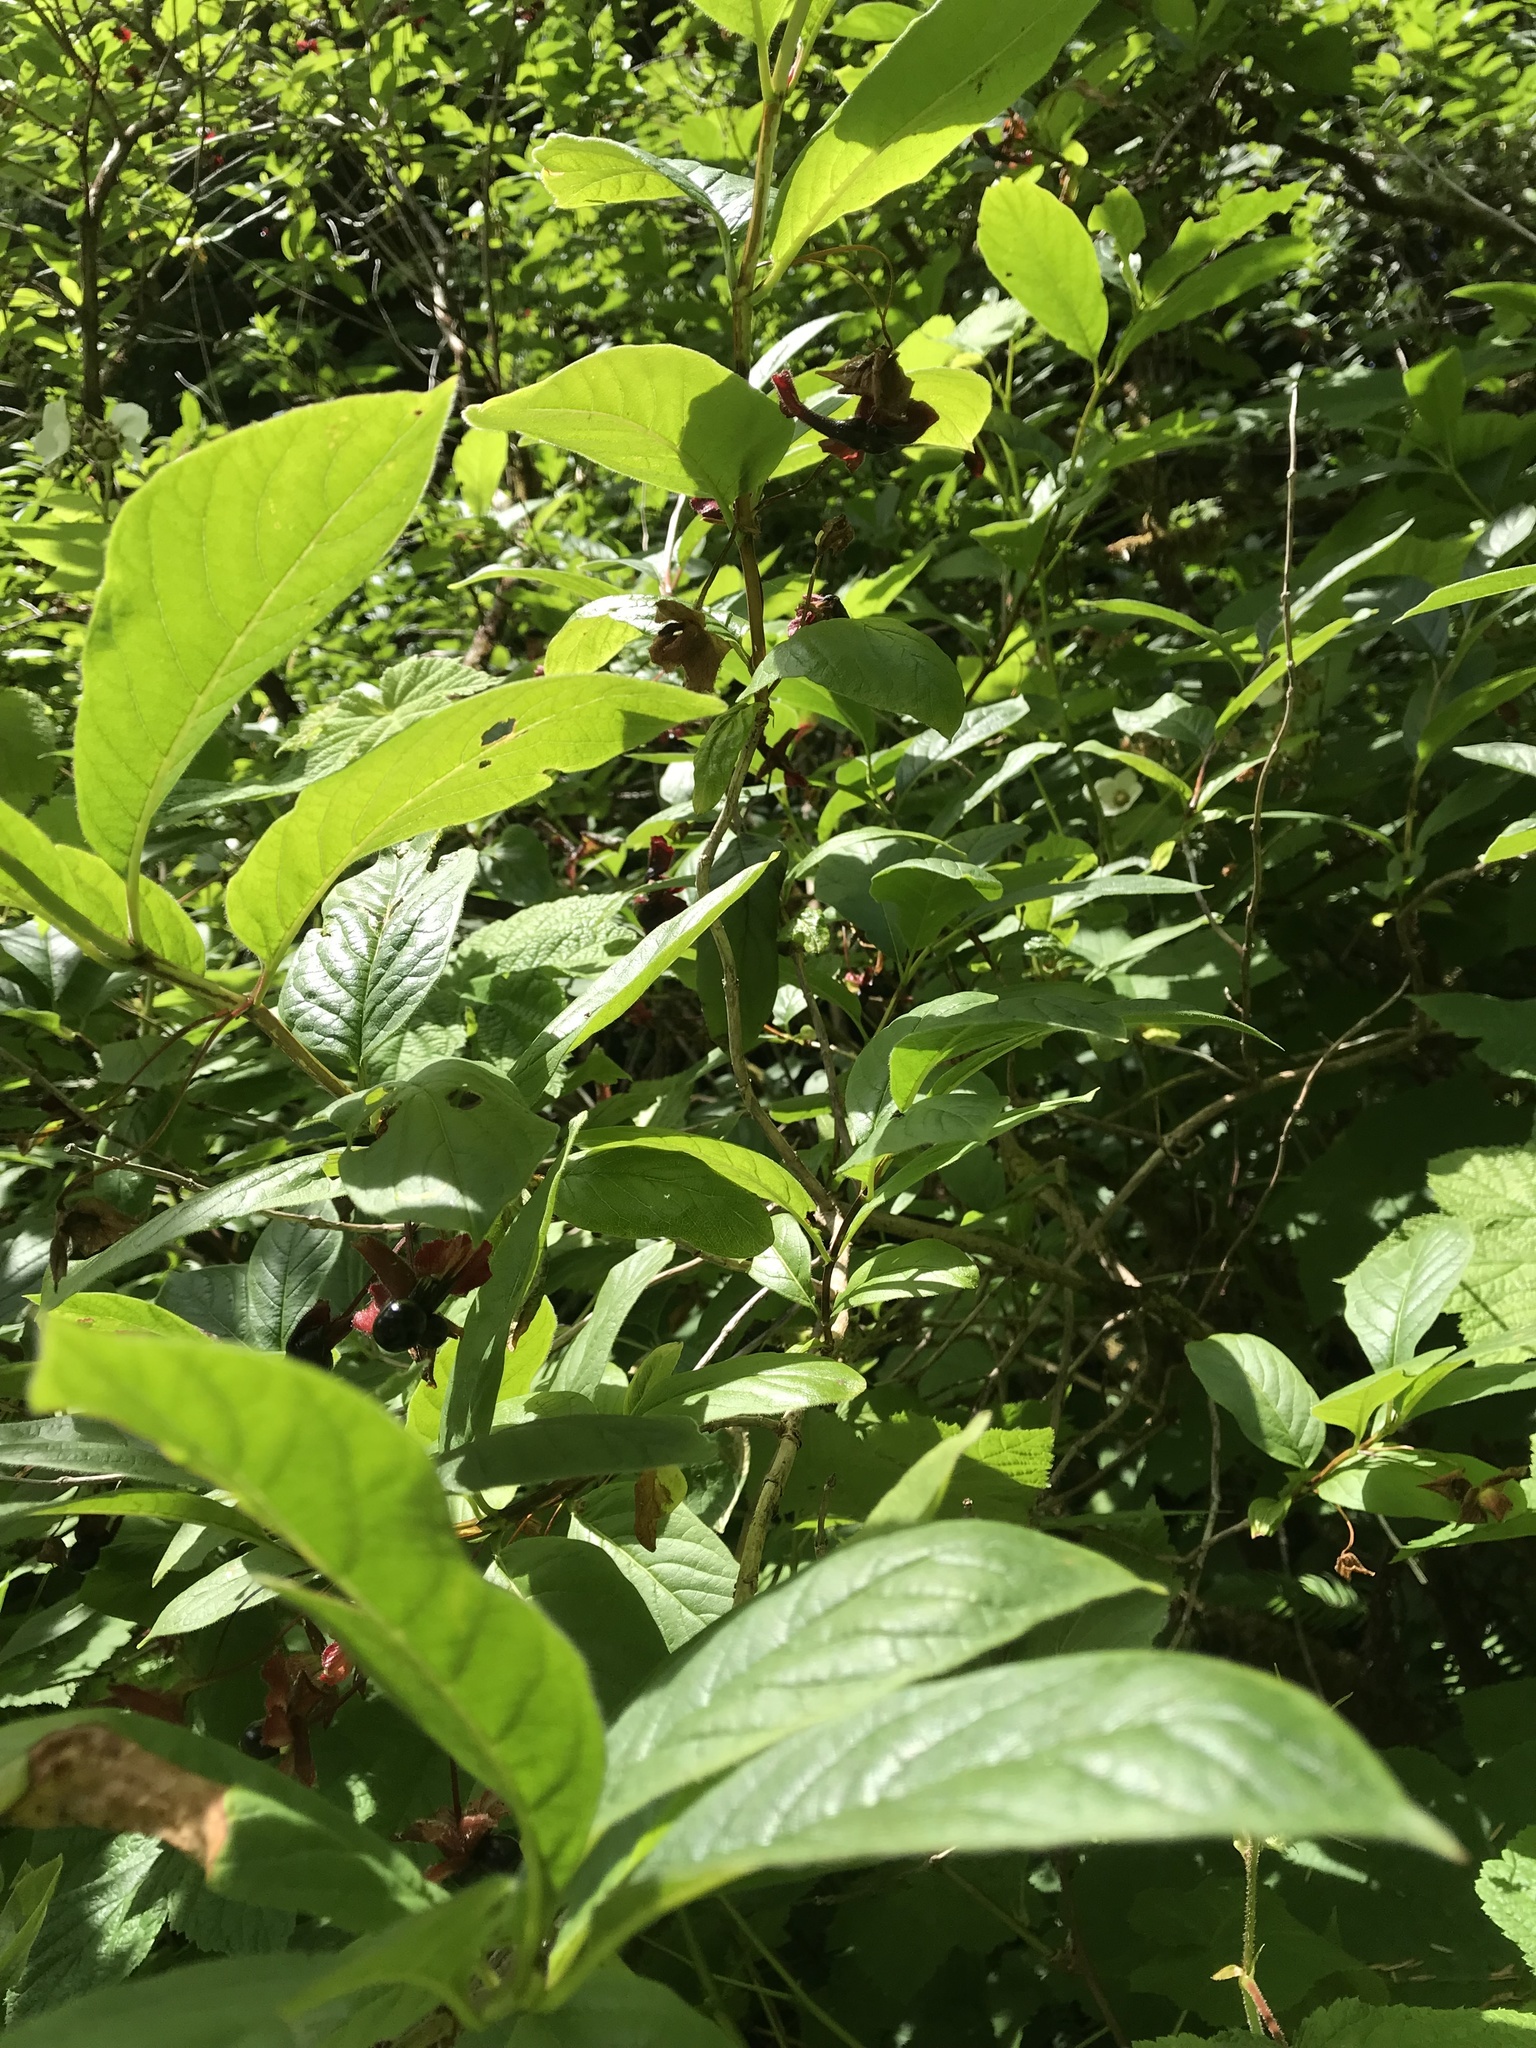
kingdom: Plantae
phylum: Tracheophyta
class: Magnoliopsida
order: Dipsacales
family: Caprifoliaceae
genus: Lonicera
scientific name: Lonicera involucrata
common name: Californian honeysuckle
